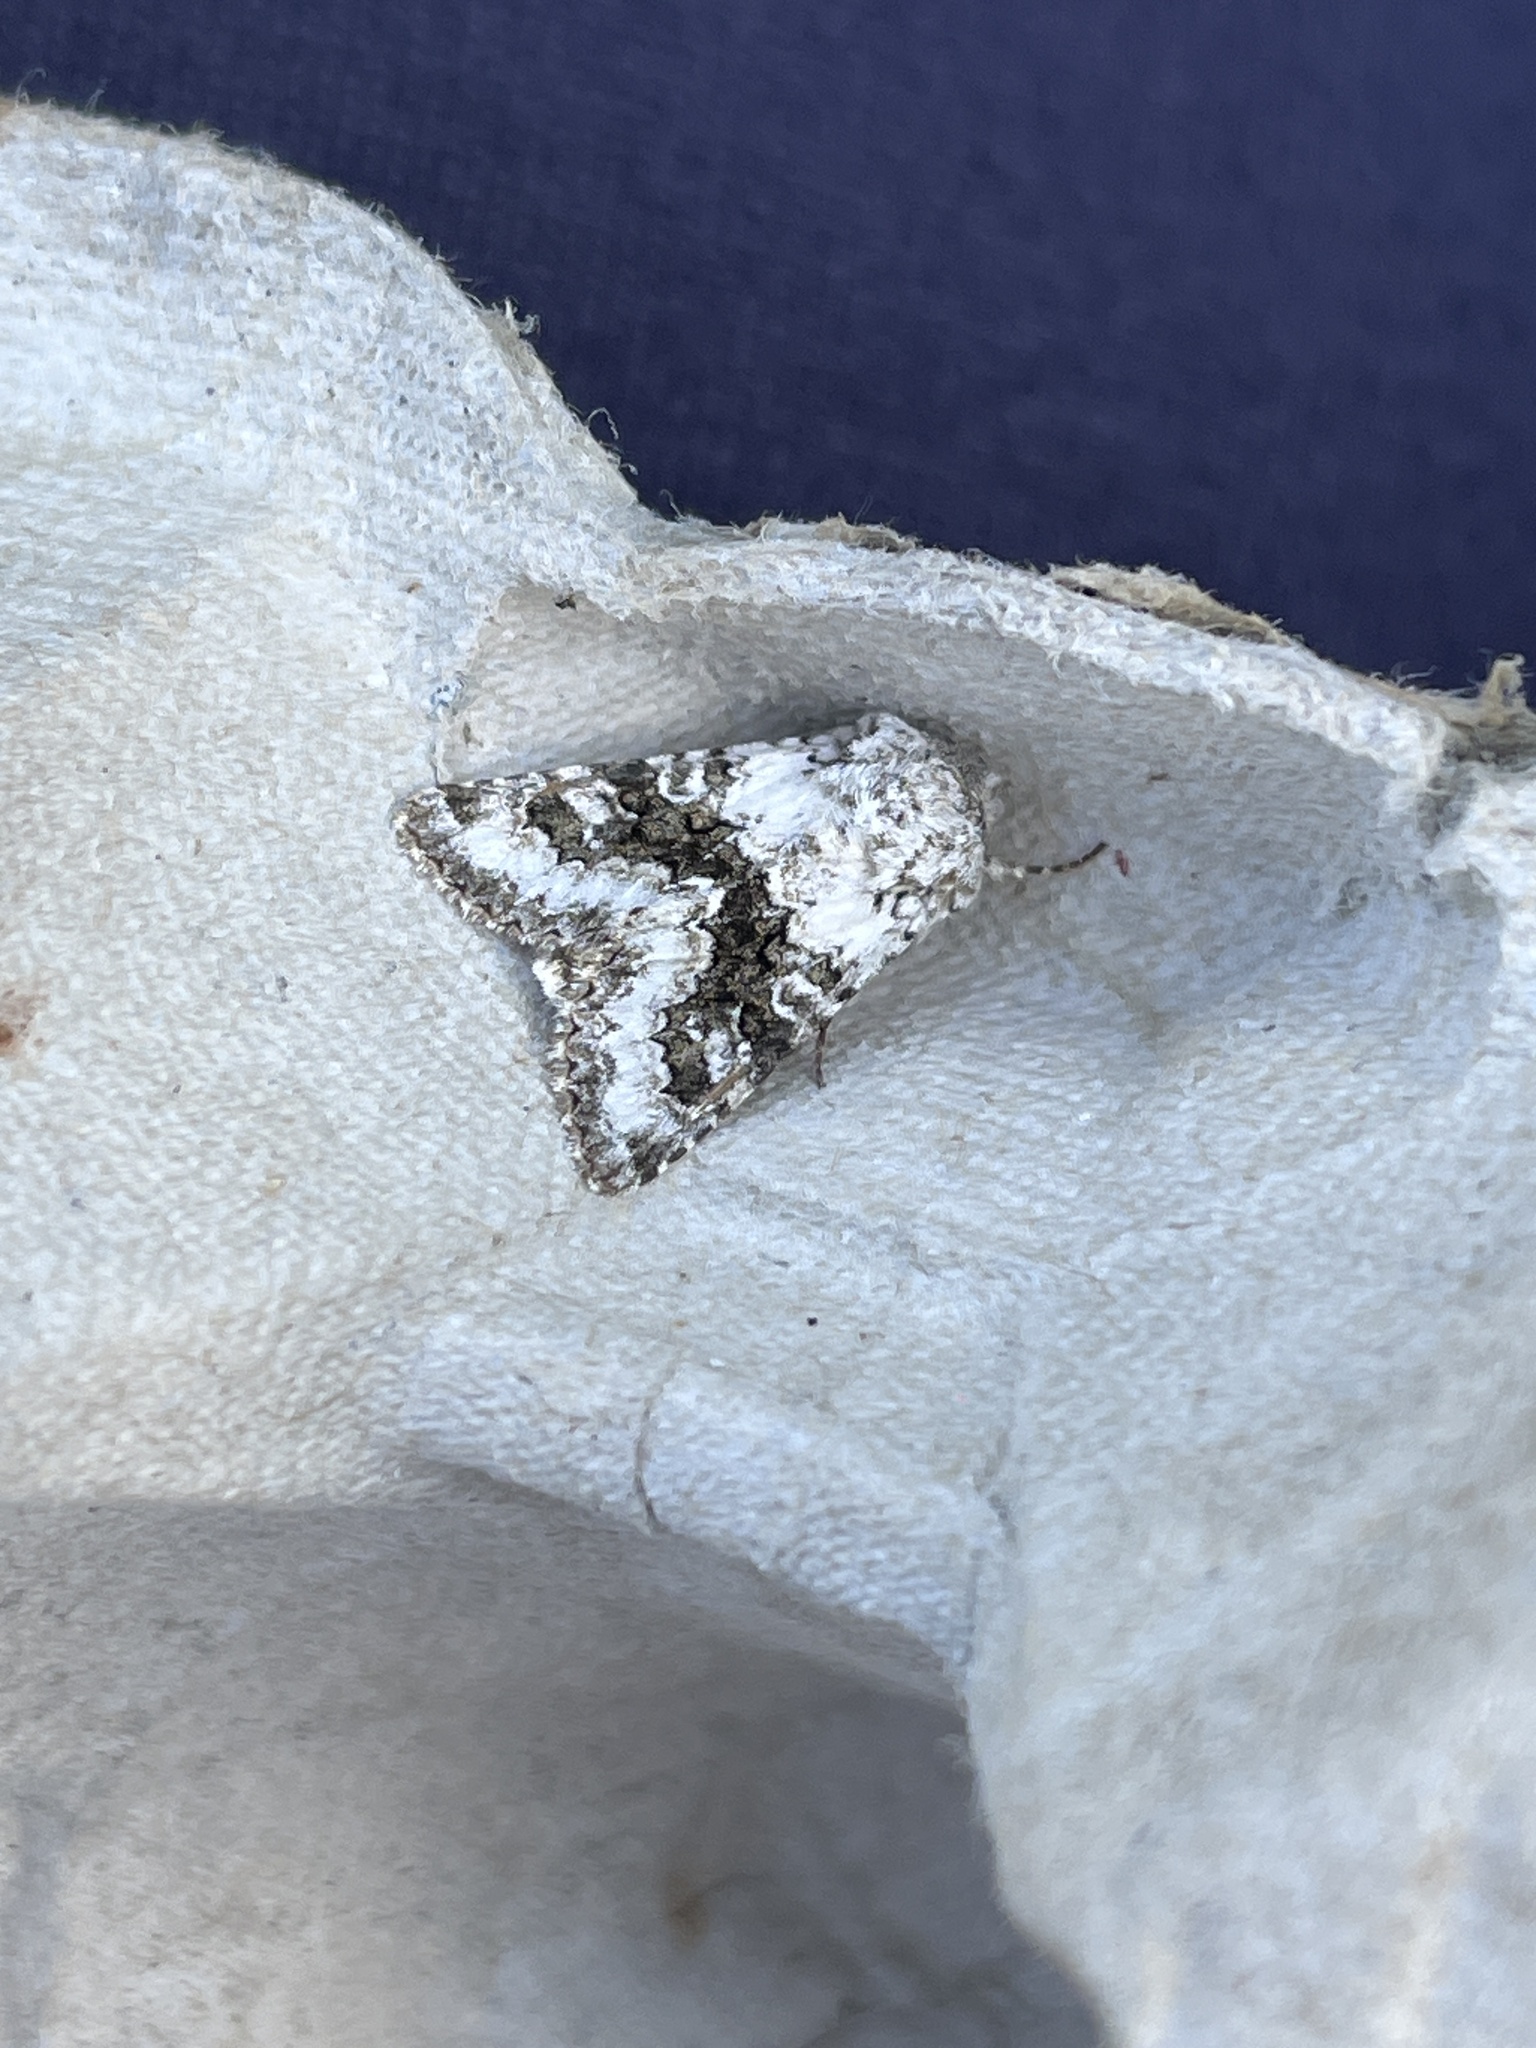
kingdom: Animalia
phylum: Arthropoda
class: Insecta
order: Lepidoptera
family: Noctuidae
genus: Hecatera
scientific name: Hecatera bicolorata
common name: Broad-barred white
